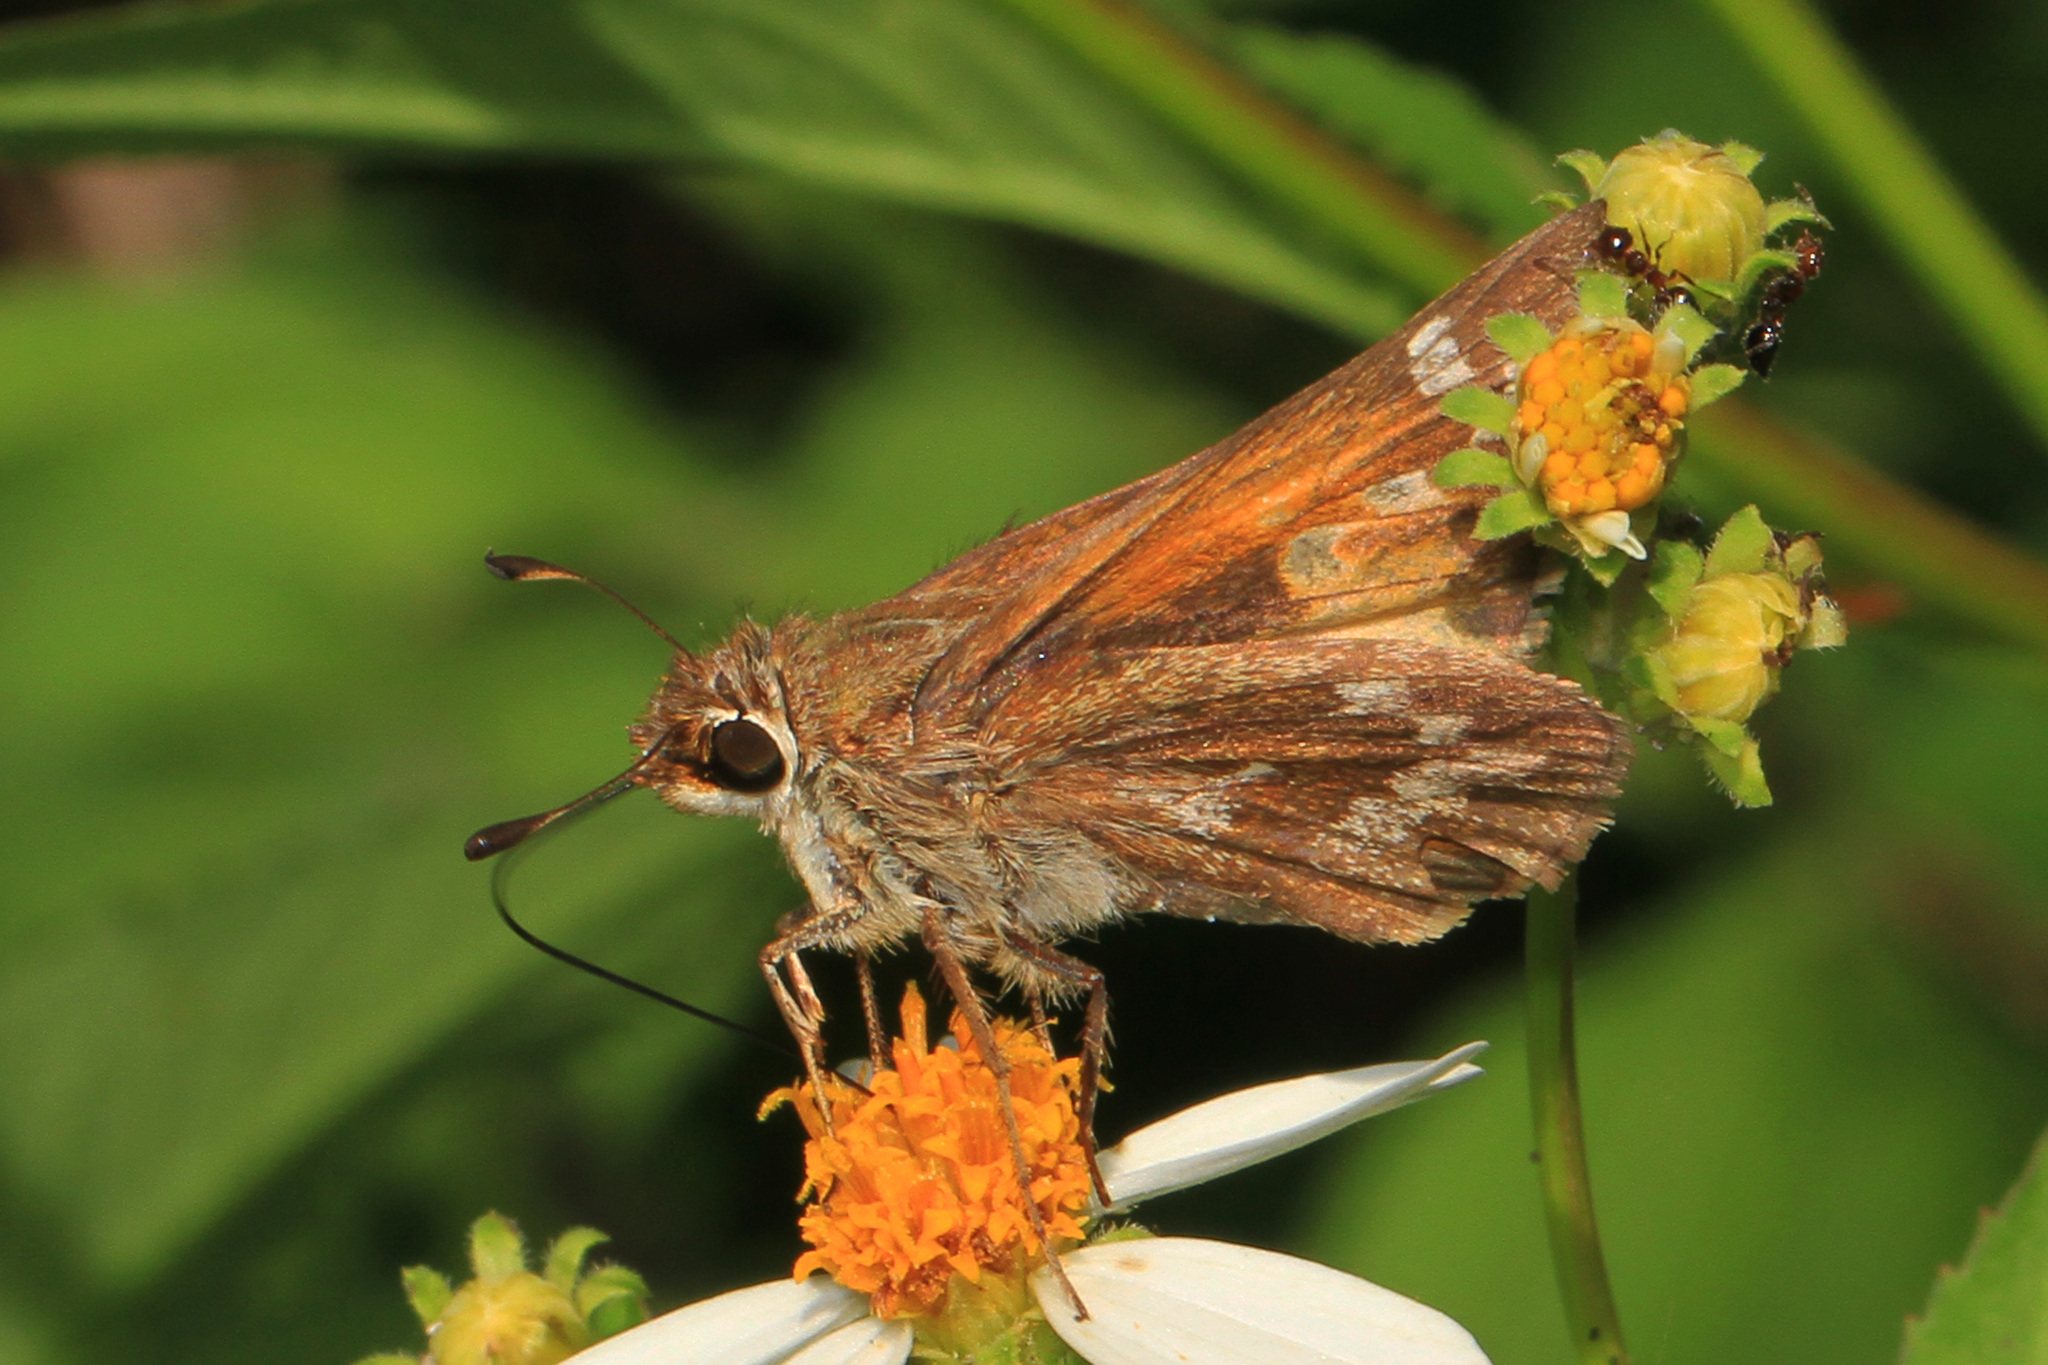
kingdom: Animalia
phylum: Arthropoda
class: Insecta
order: Lepidoptera
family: Hesperiidae
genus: Atalopedes
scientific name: Atalopedes
